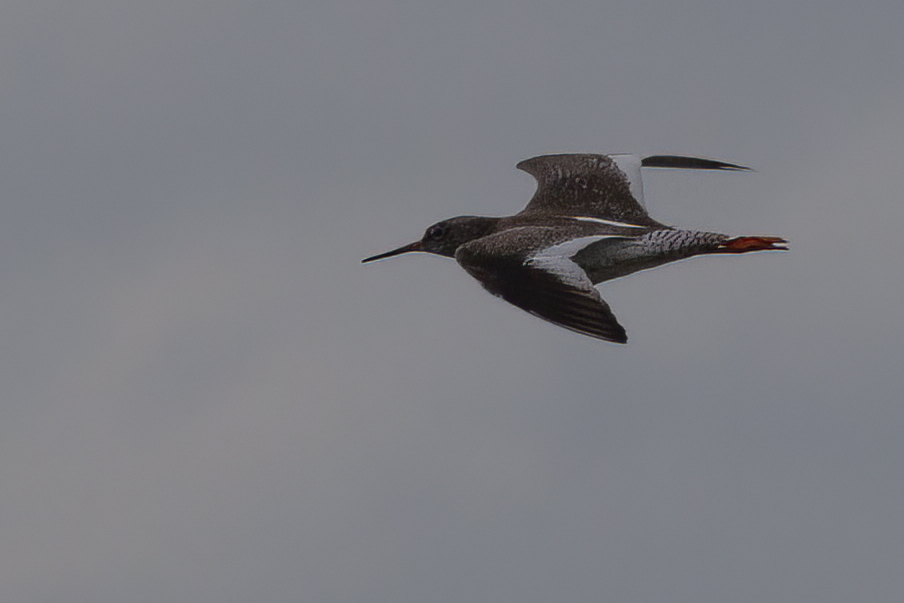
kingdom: Animalia
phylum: Chordata
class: Aves
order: Charadriiformes
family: Scolopacidae
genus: Tringa
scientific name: Tringa totanus
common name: Common redshank
